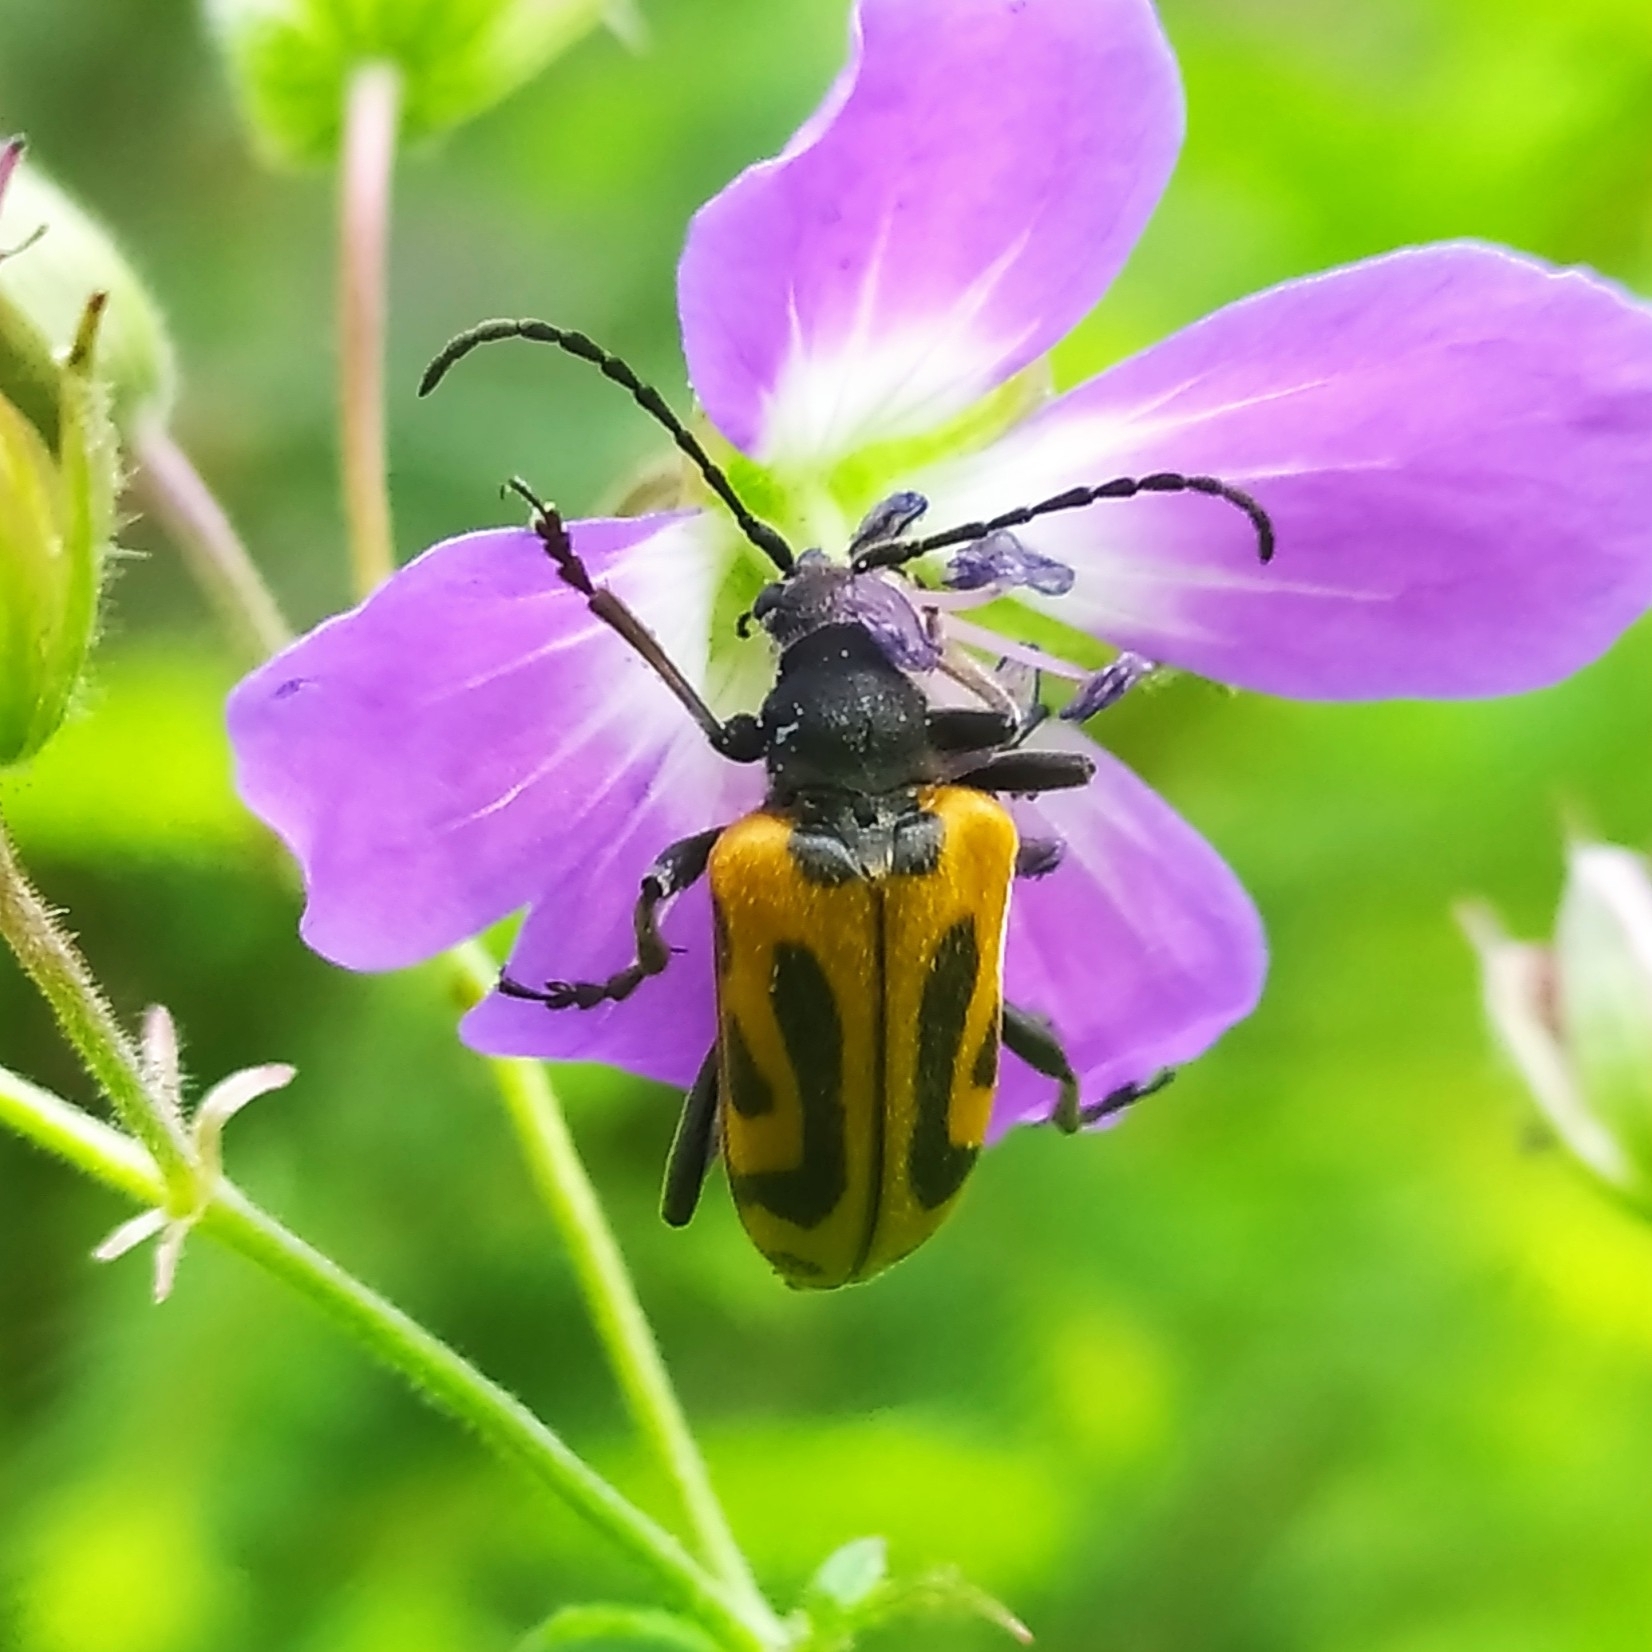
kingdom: Animalia
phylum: Arthropoda
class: Insecta
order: Coleoptera
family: Cerambycidae
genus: Brachyta
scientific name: Brachyta interrogationis
